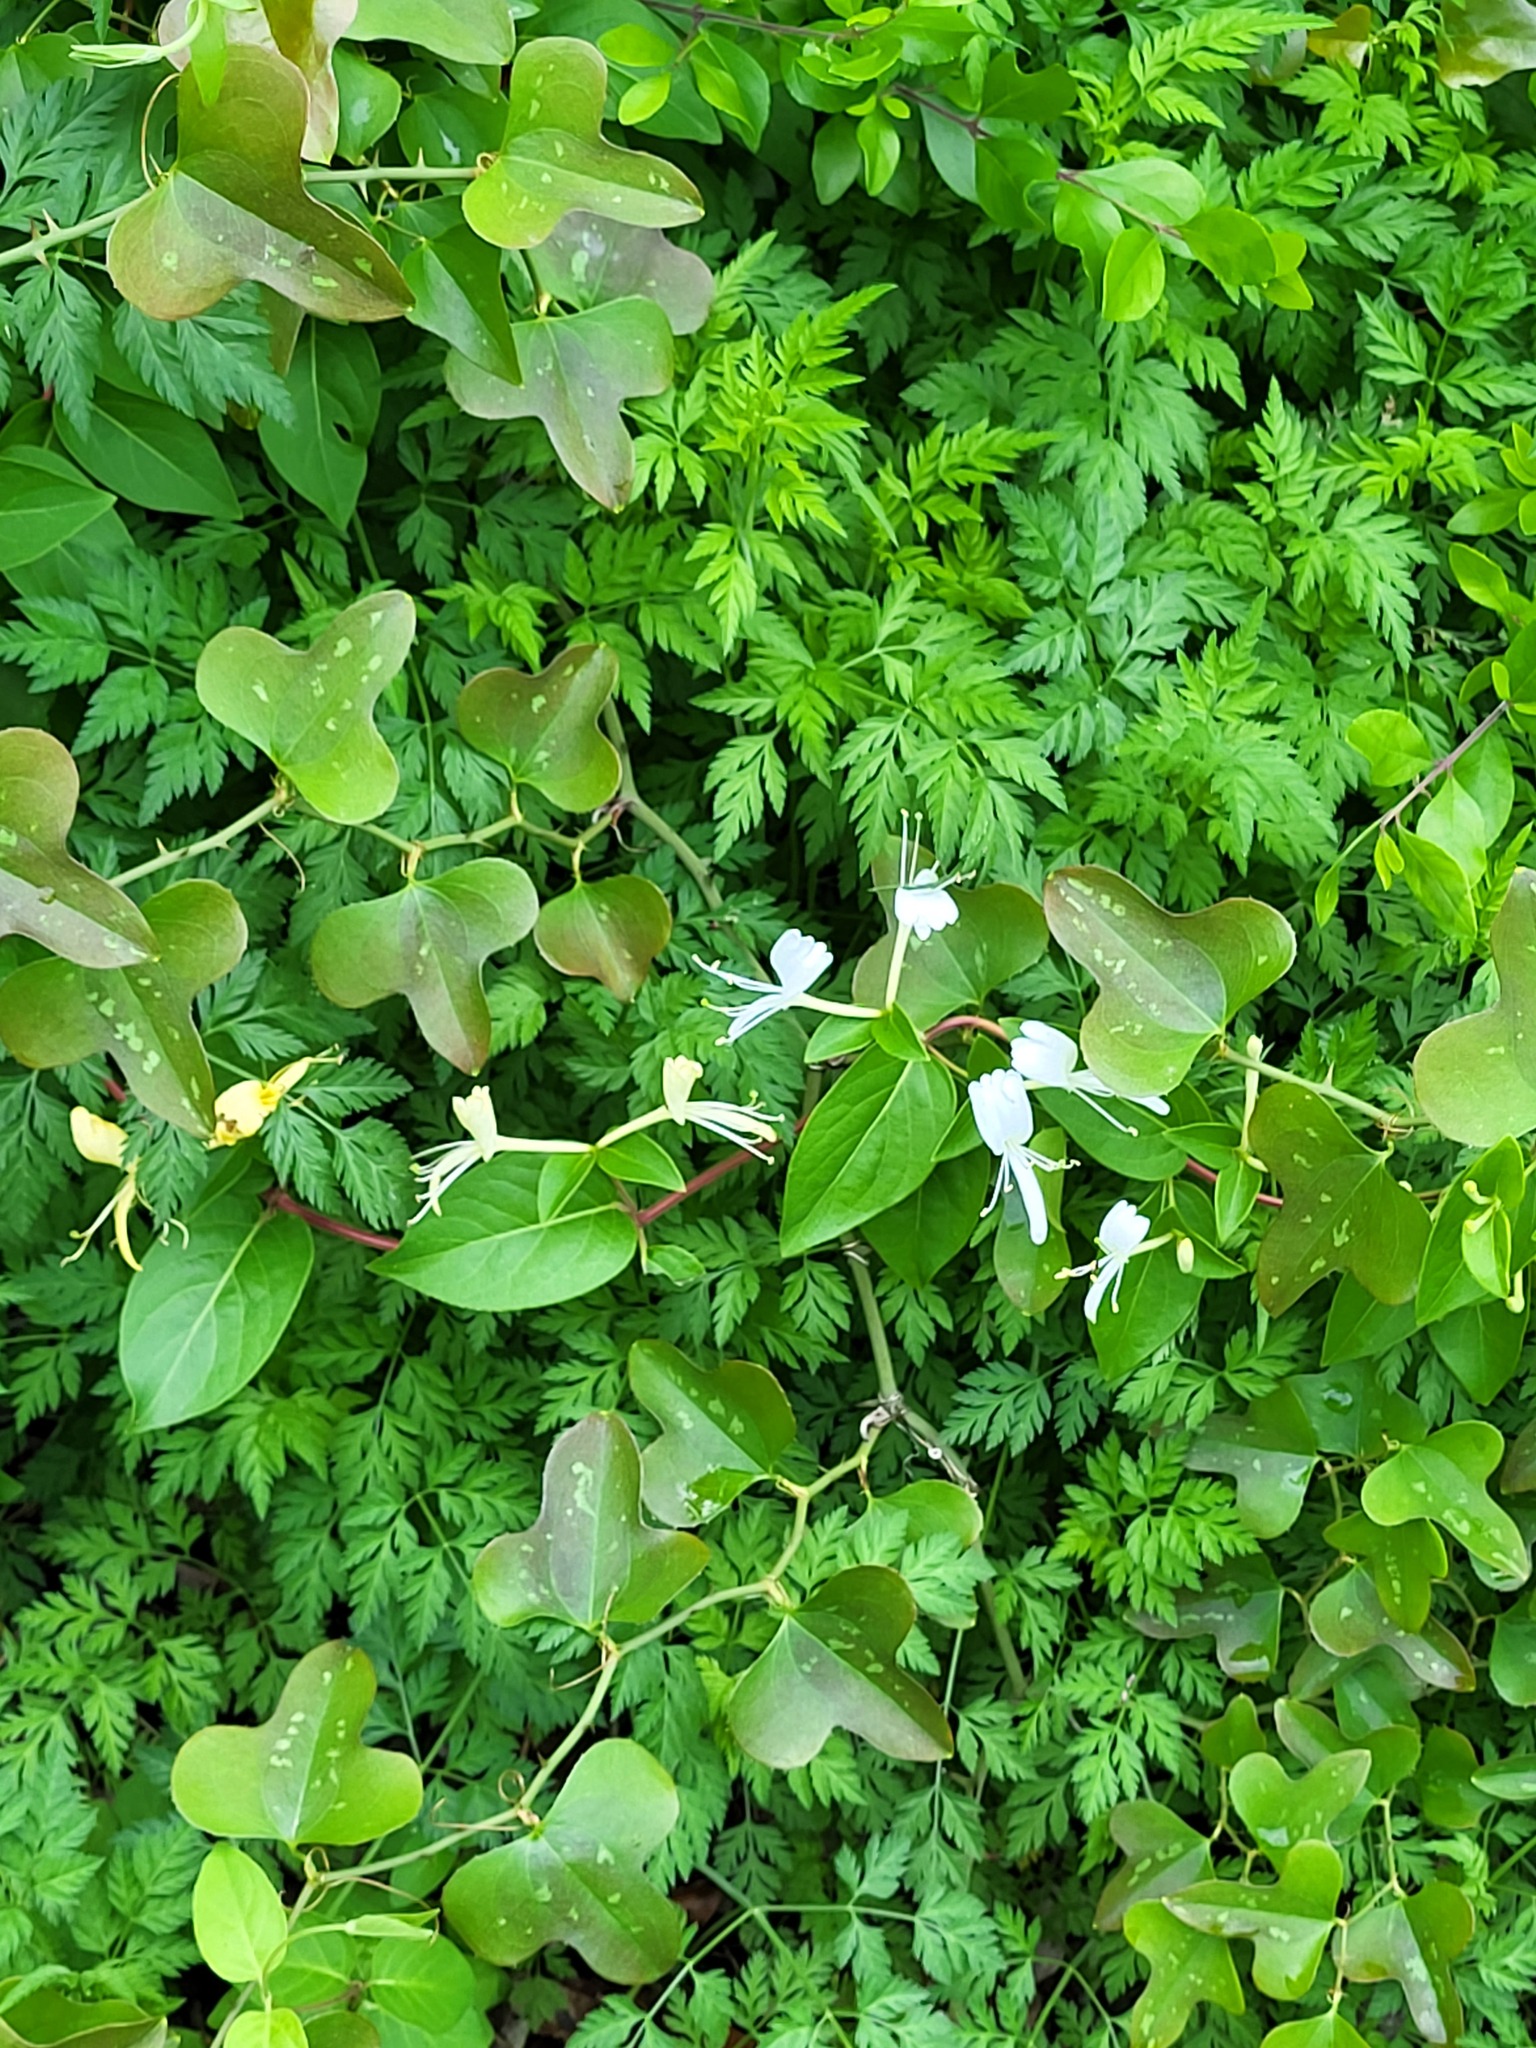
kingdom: Plantae
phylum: Tracheophyta
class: Magnoliopsida
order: Rosales
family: Rosaceae
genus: Rubus
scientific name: Rubus trivialis
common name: Southern dewberry
